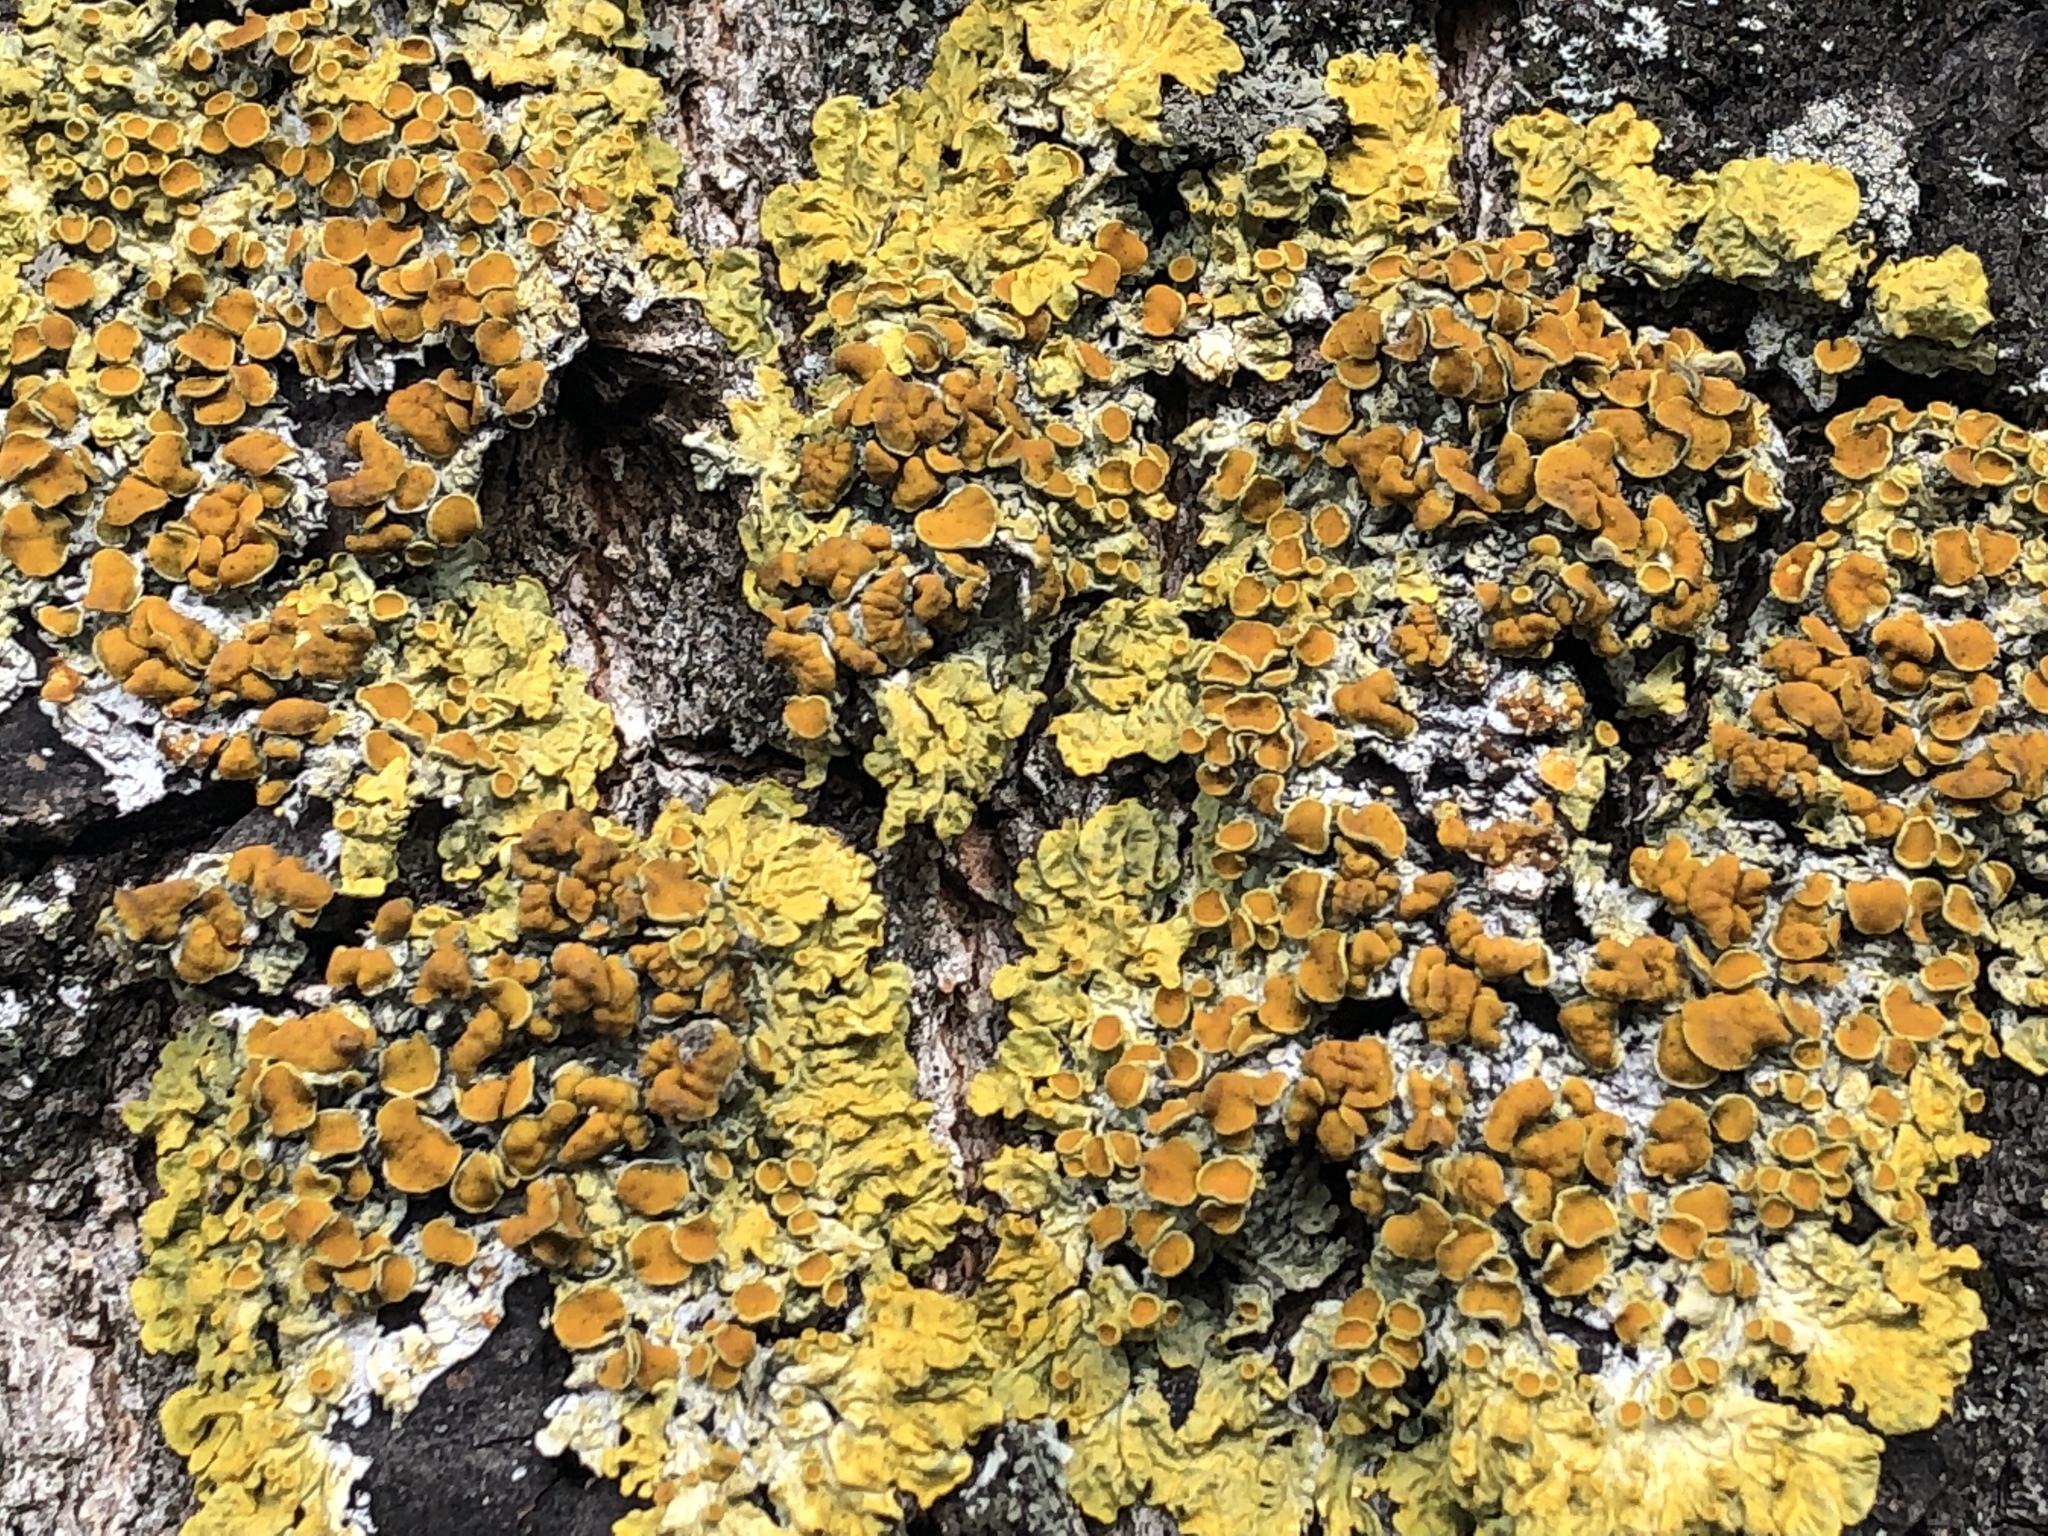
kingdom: Fungi
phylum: Ascomycota
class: Lecanoromycetes
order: Teloschistales
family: Teloschistaceae
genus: Xanthoria
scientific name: Xanthoria parietina
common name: Common orange lichen
